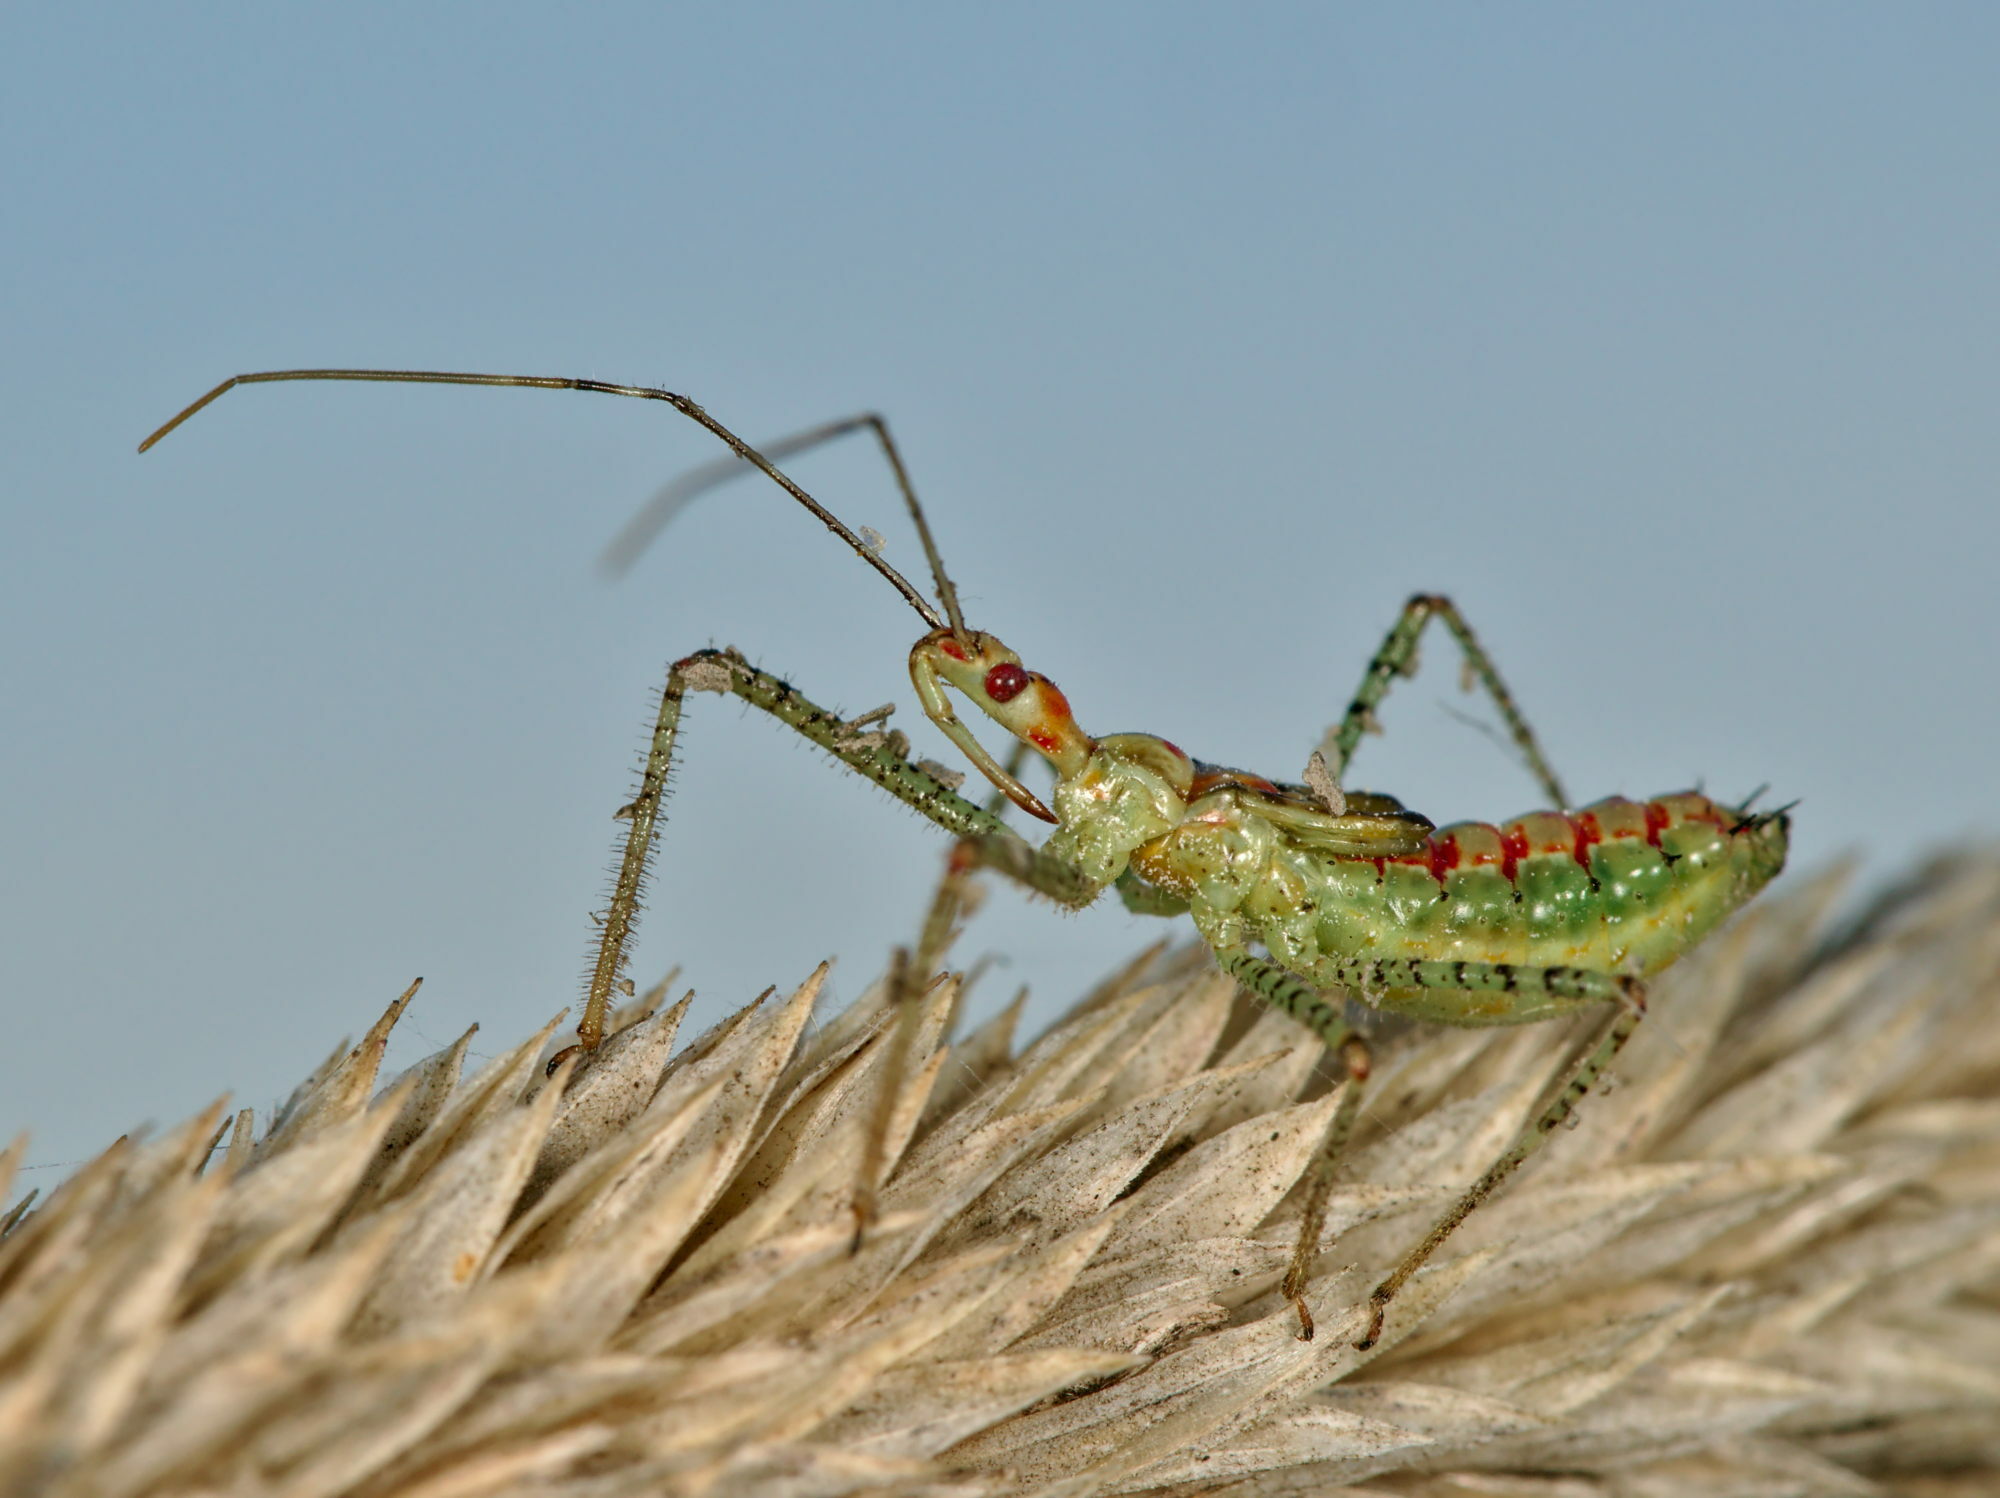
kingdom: Animalia
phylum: Arthropoda
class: Insecta
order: Hemiptera
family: Reduviidae
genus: Zelus
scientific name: Zelus renardii
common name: Assassin bug
